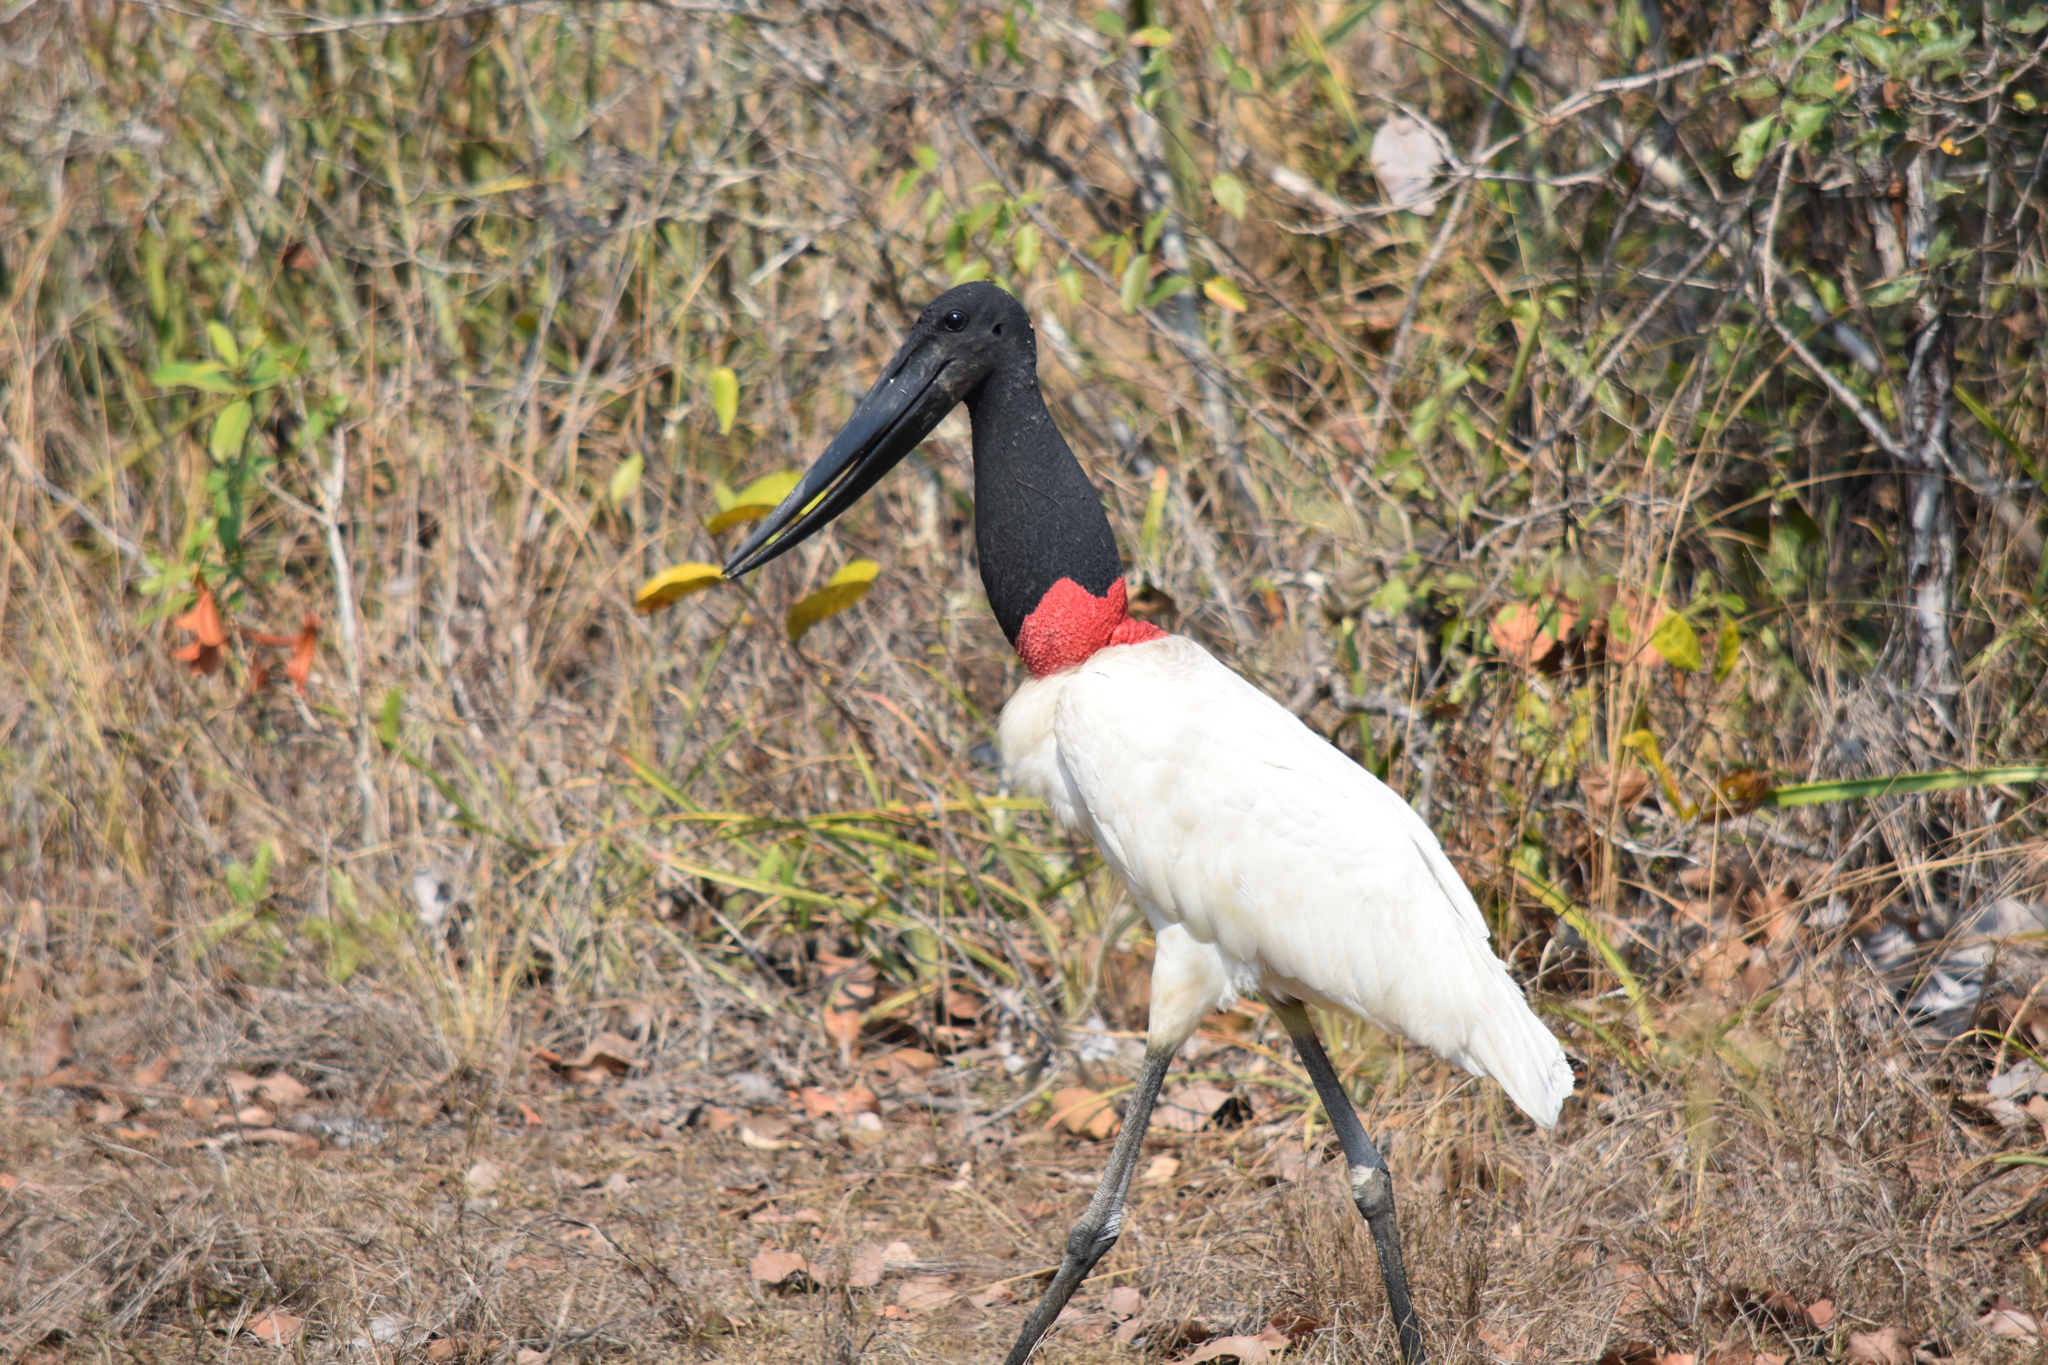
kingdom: Animalia
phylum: Chordata
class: Aves
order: Ciconiiformes
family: Ciconiidae
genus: Jabiru
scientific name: Jabiru mycteria
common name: Jabiru
